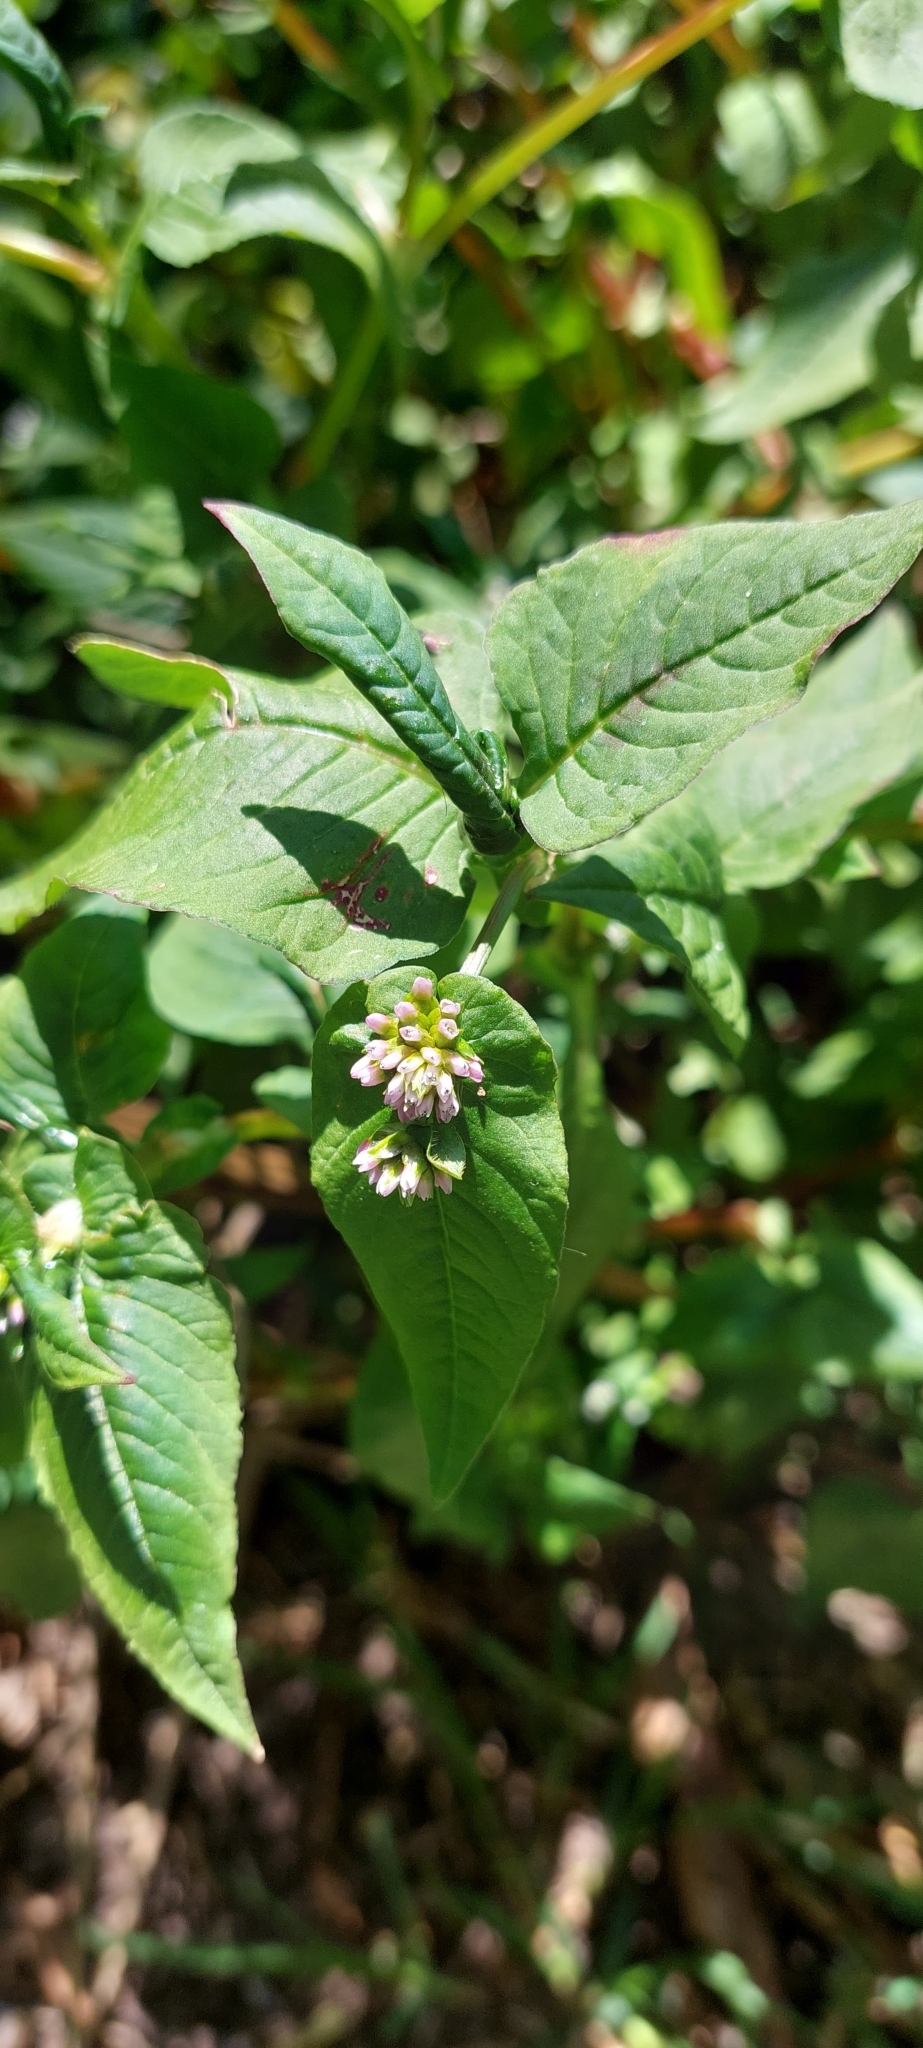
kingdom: Plantae
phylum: Tracheophyta
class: Magnoliopsida
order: Caryophyllales
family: Polygonaceae
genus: Persicaria
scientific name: Persicaria nepalensis
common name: Nepal persicaria
